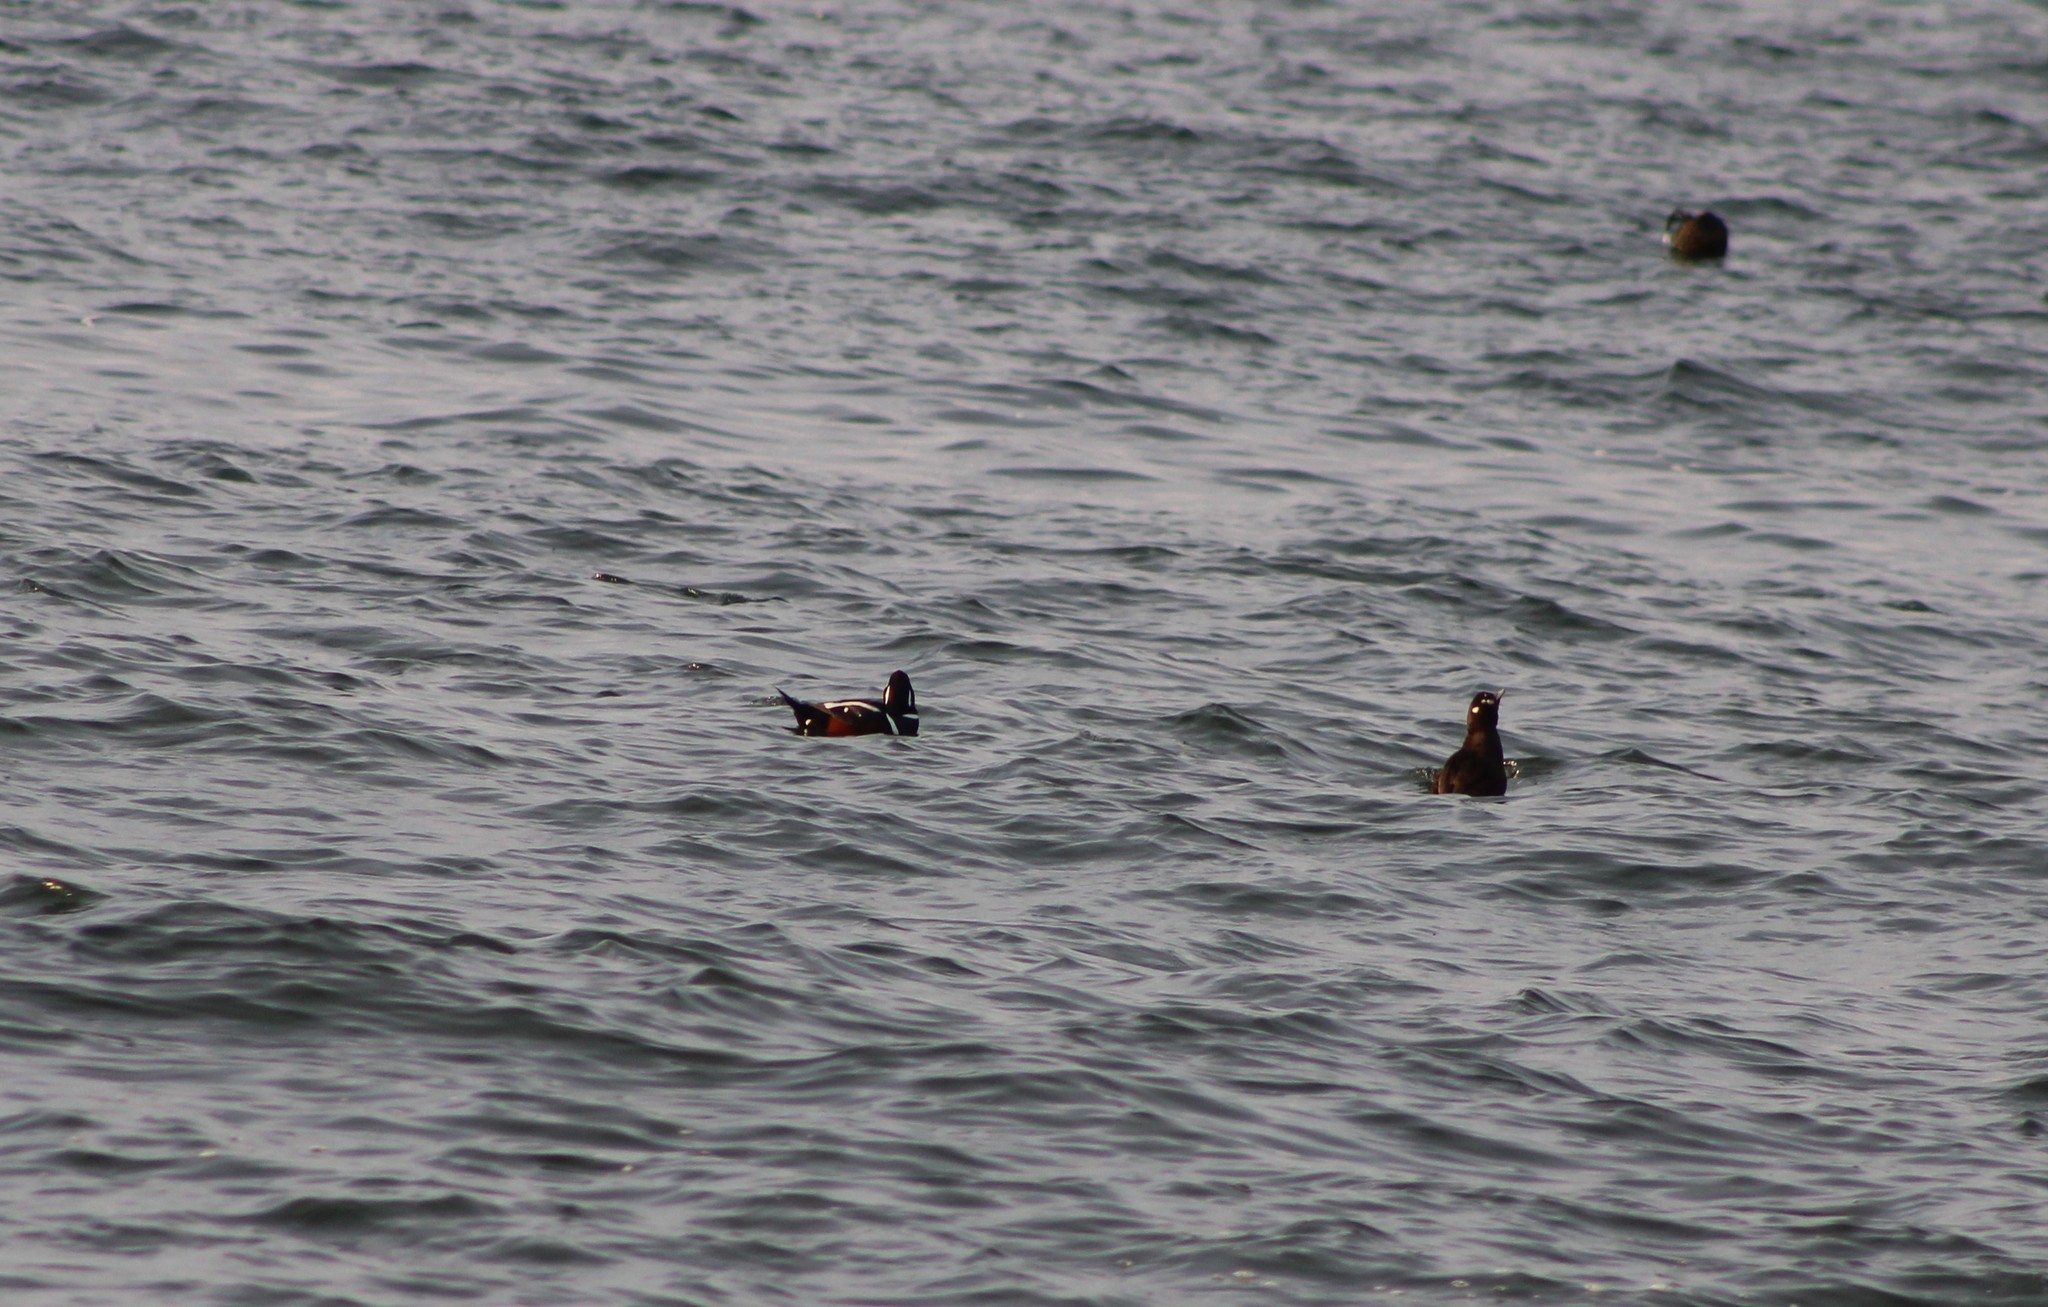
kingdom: Animalia
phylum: Chordata
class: Aves
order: Anseriformes
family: Anatidae
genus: Histrionicus
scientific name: Histrionicus histrionicus
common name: Harlequin duck
